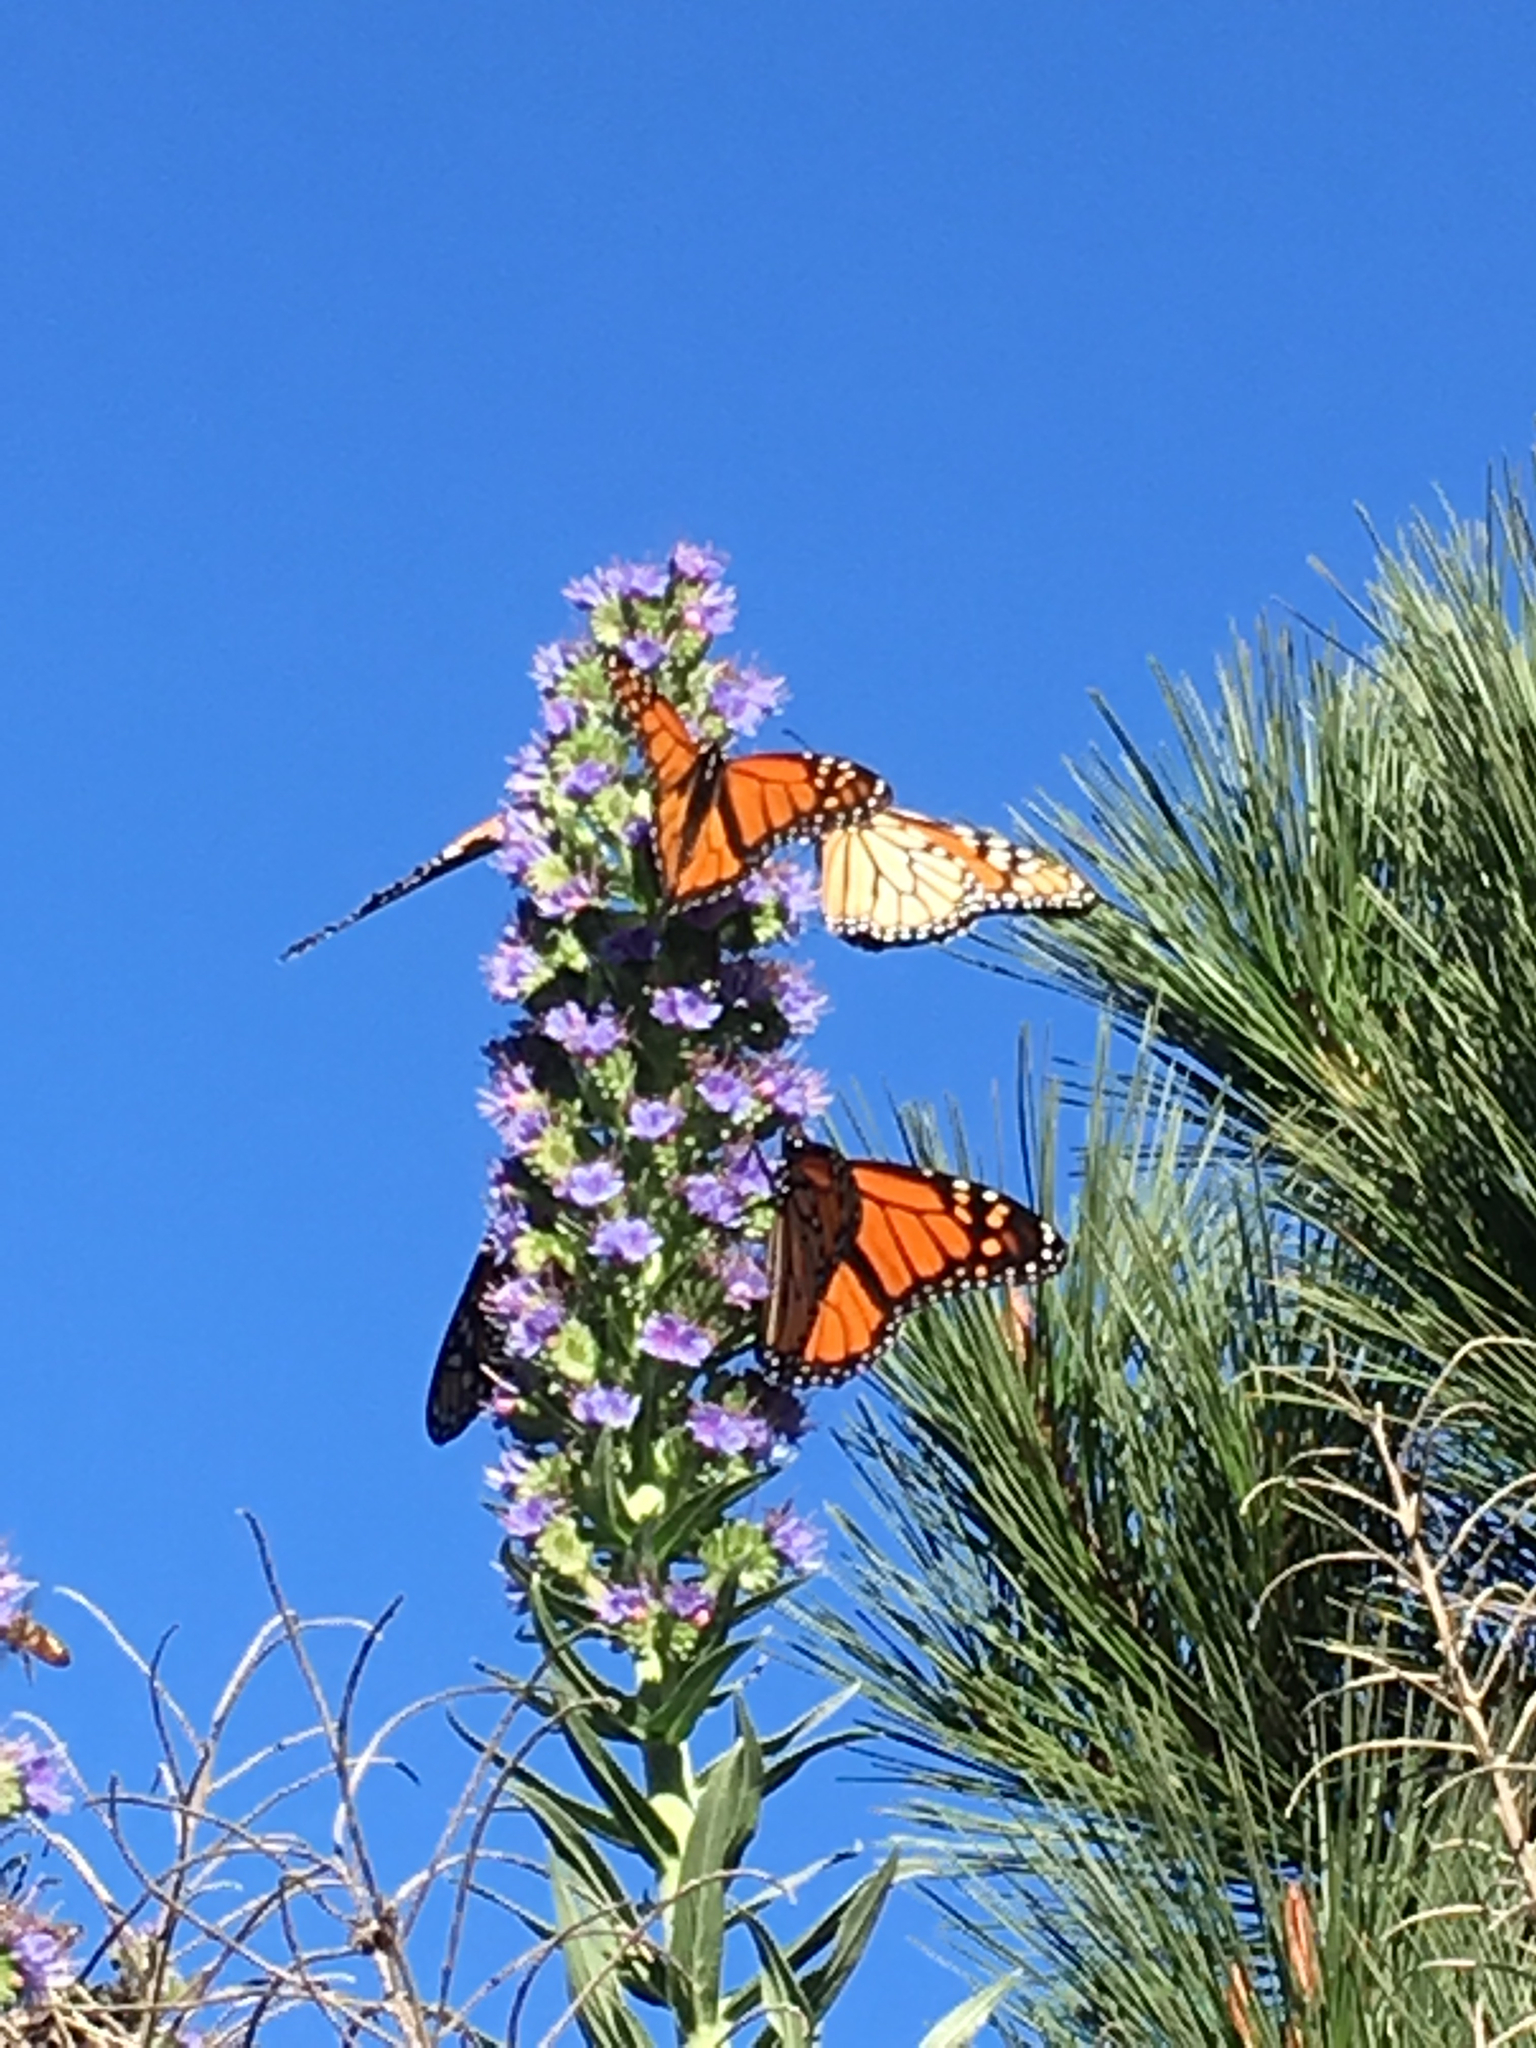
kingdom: Animalia
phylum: Arthropoda
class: Insecta
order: Lepidoptera
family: Nymphalidae
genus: Danaus
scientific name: Danaus plexippus
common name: Monarch
